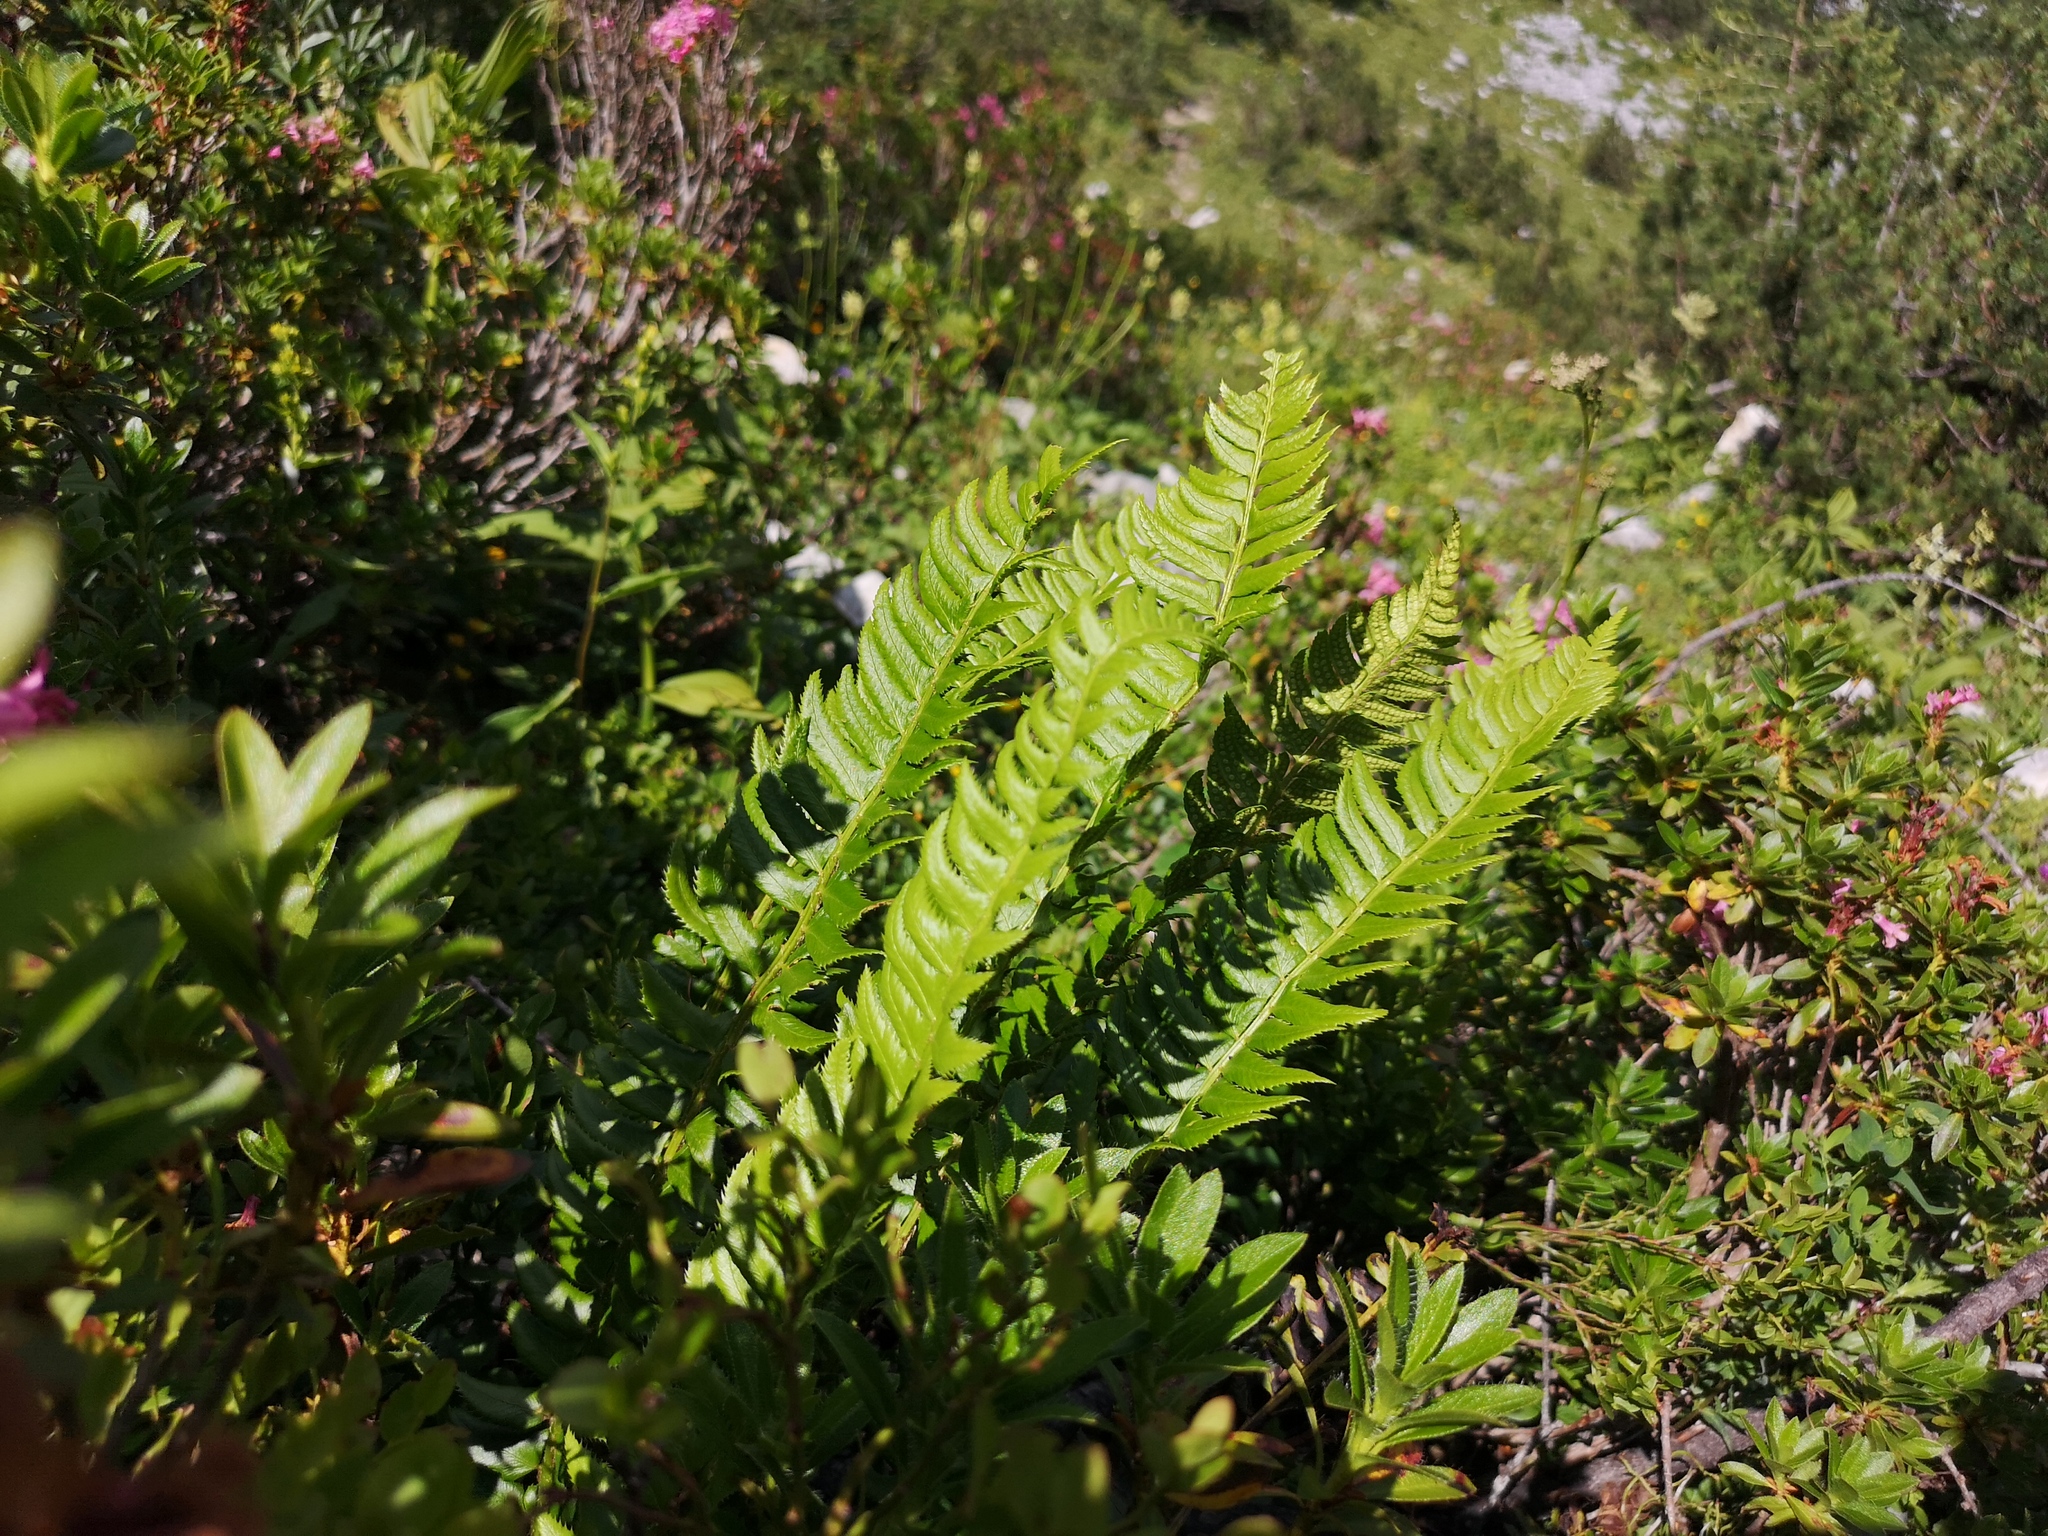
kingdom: Plantae
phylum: Tracheophyta
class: Polypodiopsida
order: Polypodiales
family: Dryopteridaceae
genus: Polystichum
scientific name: Polystichum lonchitis
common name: Holly fern
